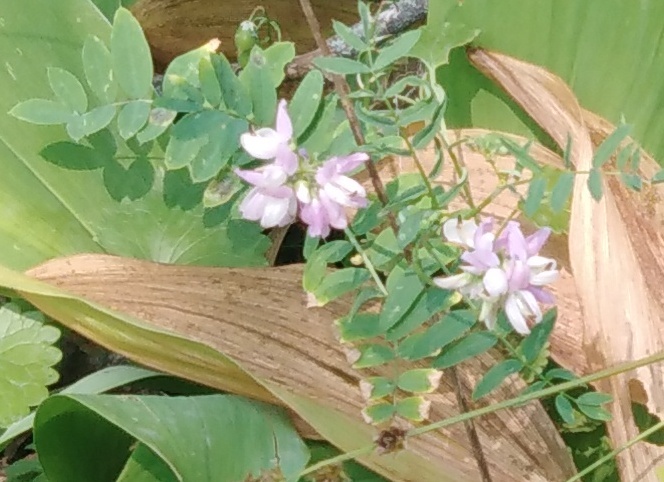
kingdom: Plantae
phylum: Tracheophyta
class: Magnoliopsida
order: Fabales
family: Fabaceae
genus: Coronilla
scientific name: Coronilla varia
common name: Crownvetch
